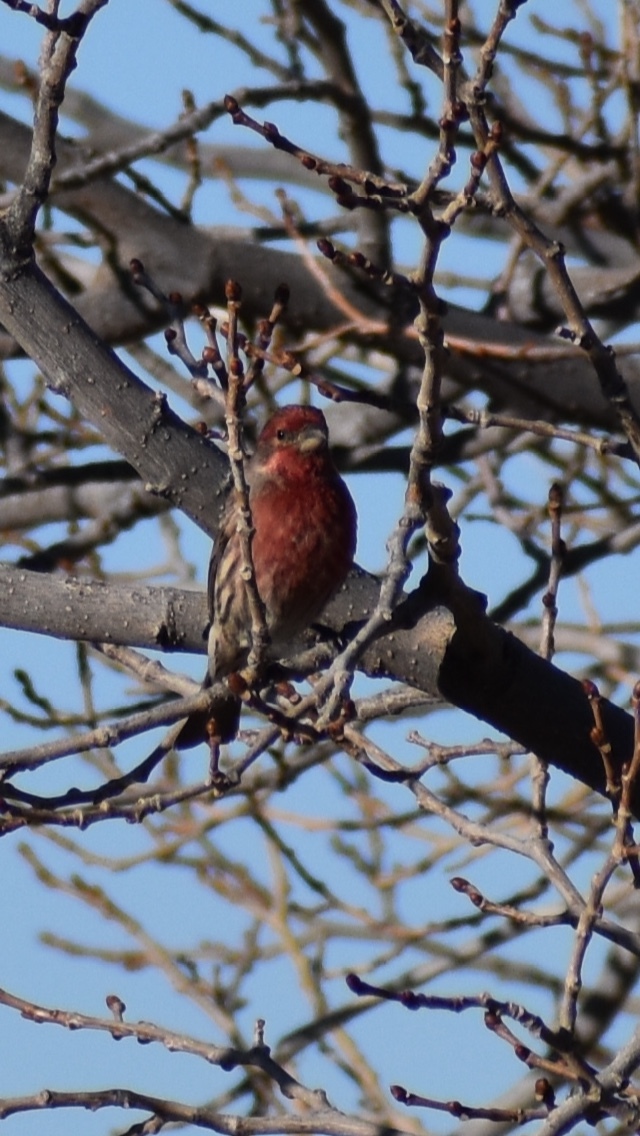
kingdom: Animalia
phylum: Chordata
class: Aves
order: Passeriformes
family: Fringillidae
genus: Haemorhous
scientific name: Haemorhous mexicanus
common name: House finch
